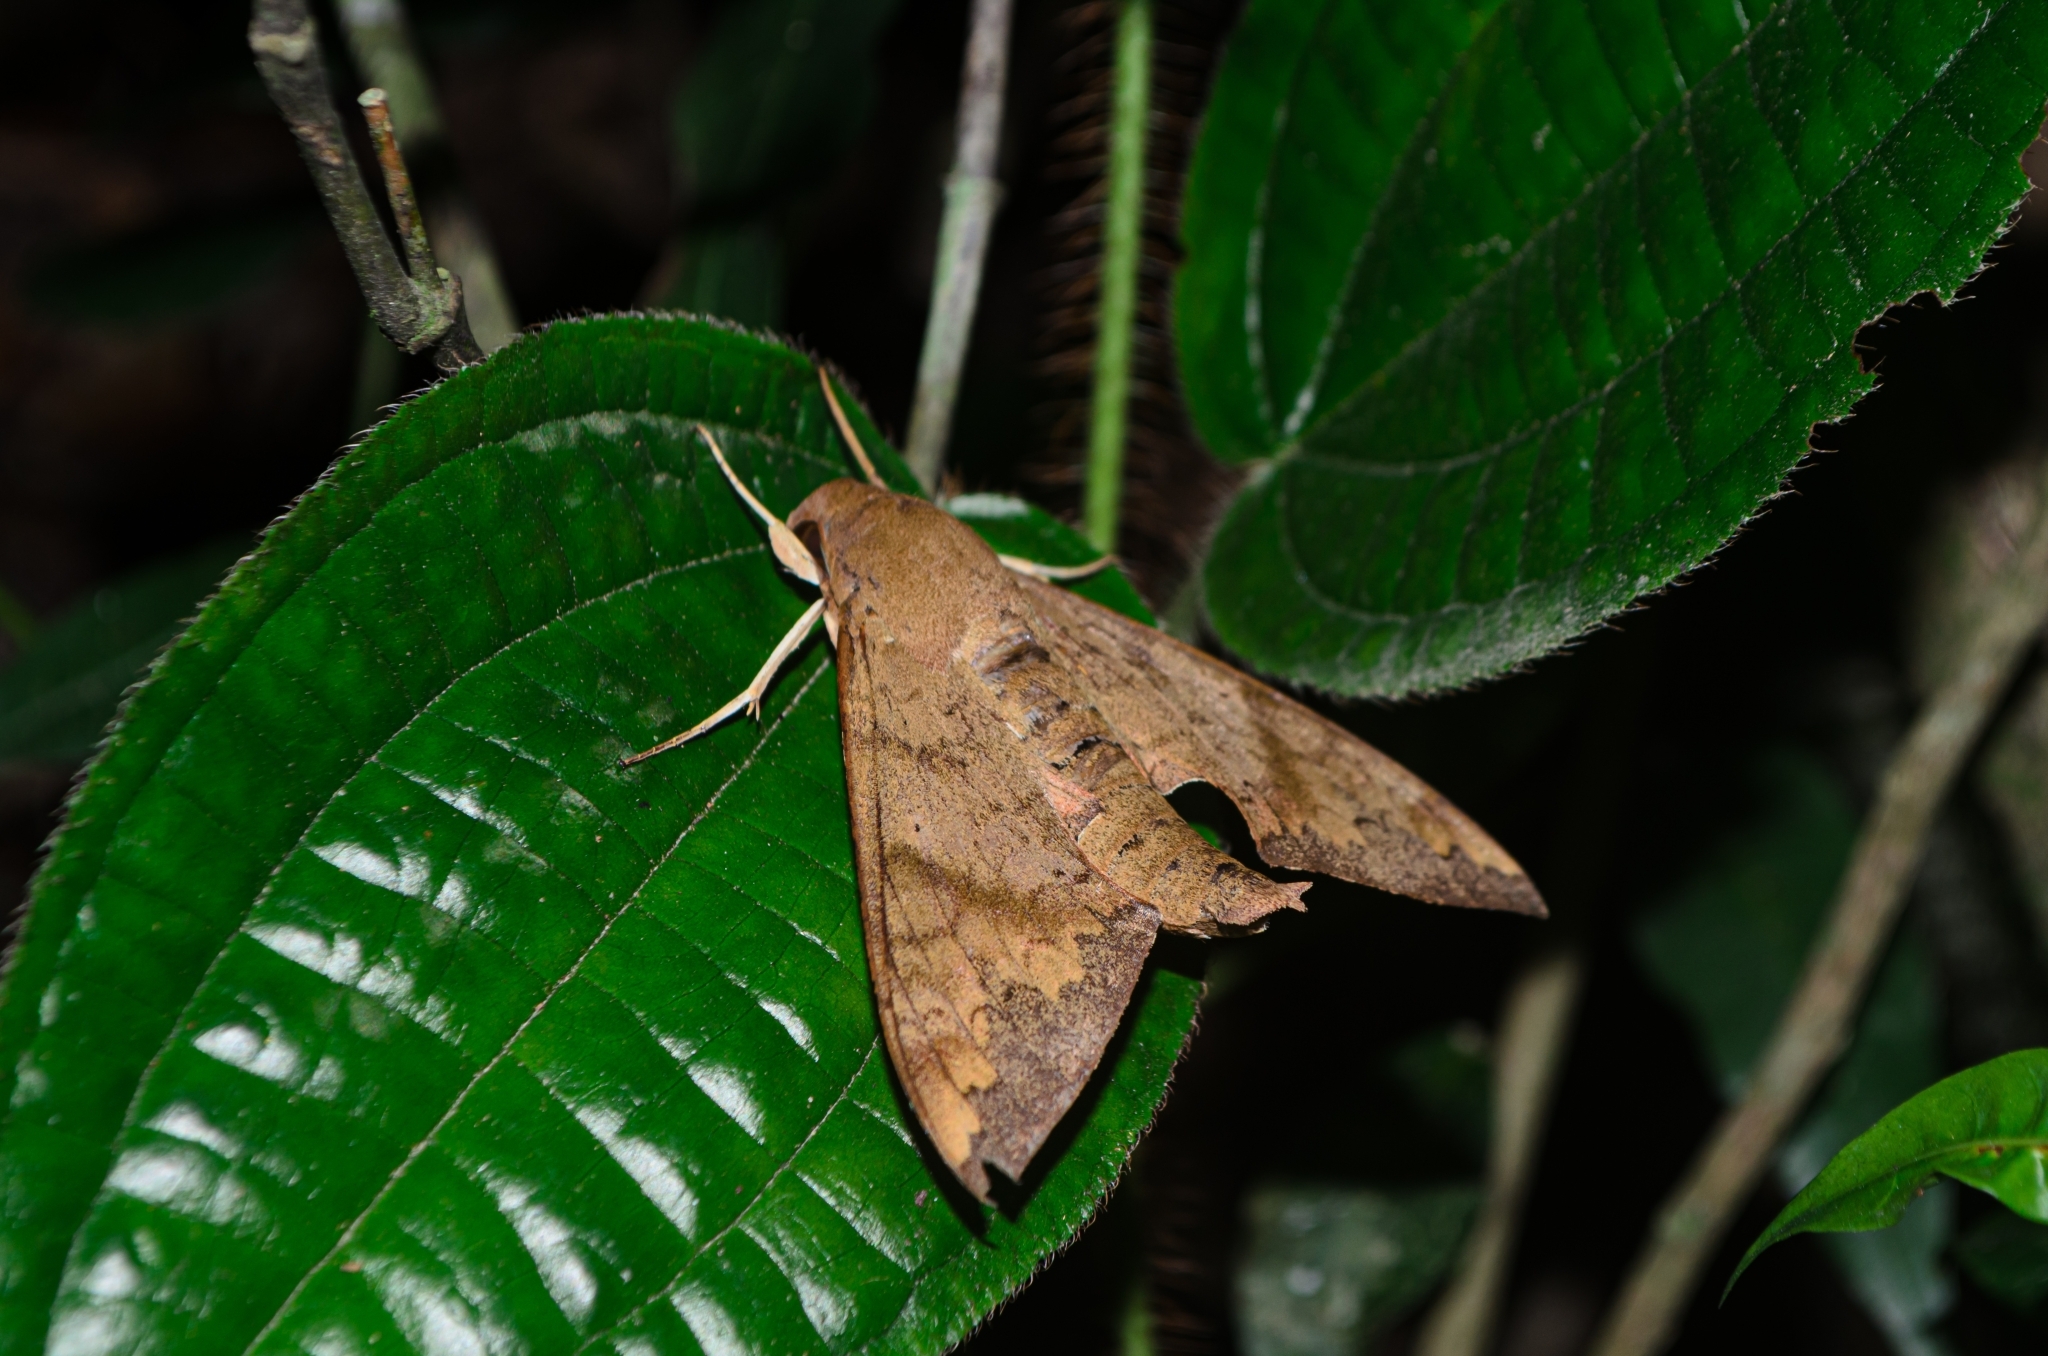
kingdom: Animalia
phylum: Arthropoda
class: Insecta
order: Lepidoptera
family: Sphingidae
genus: Pachylioides
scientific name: Pachylioides resumens
